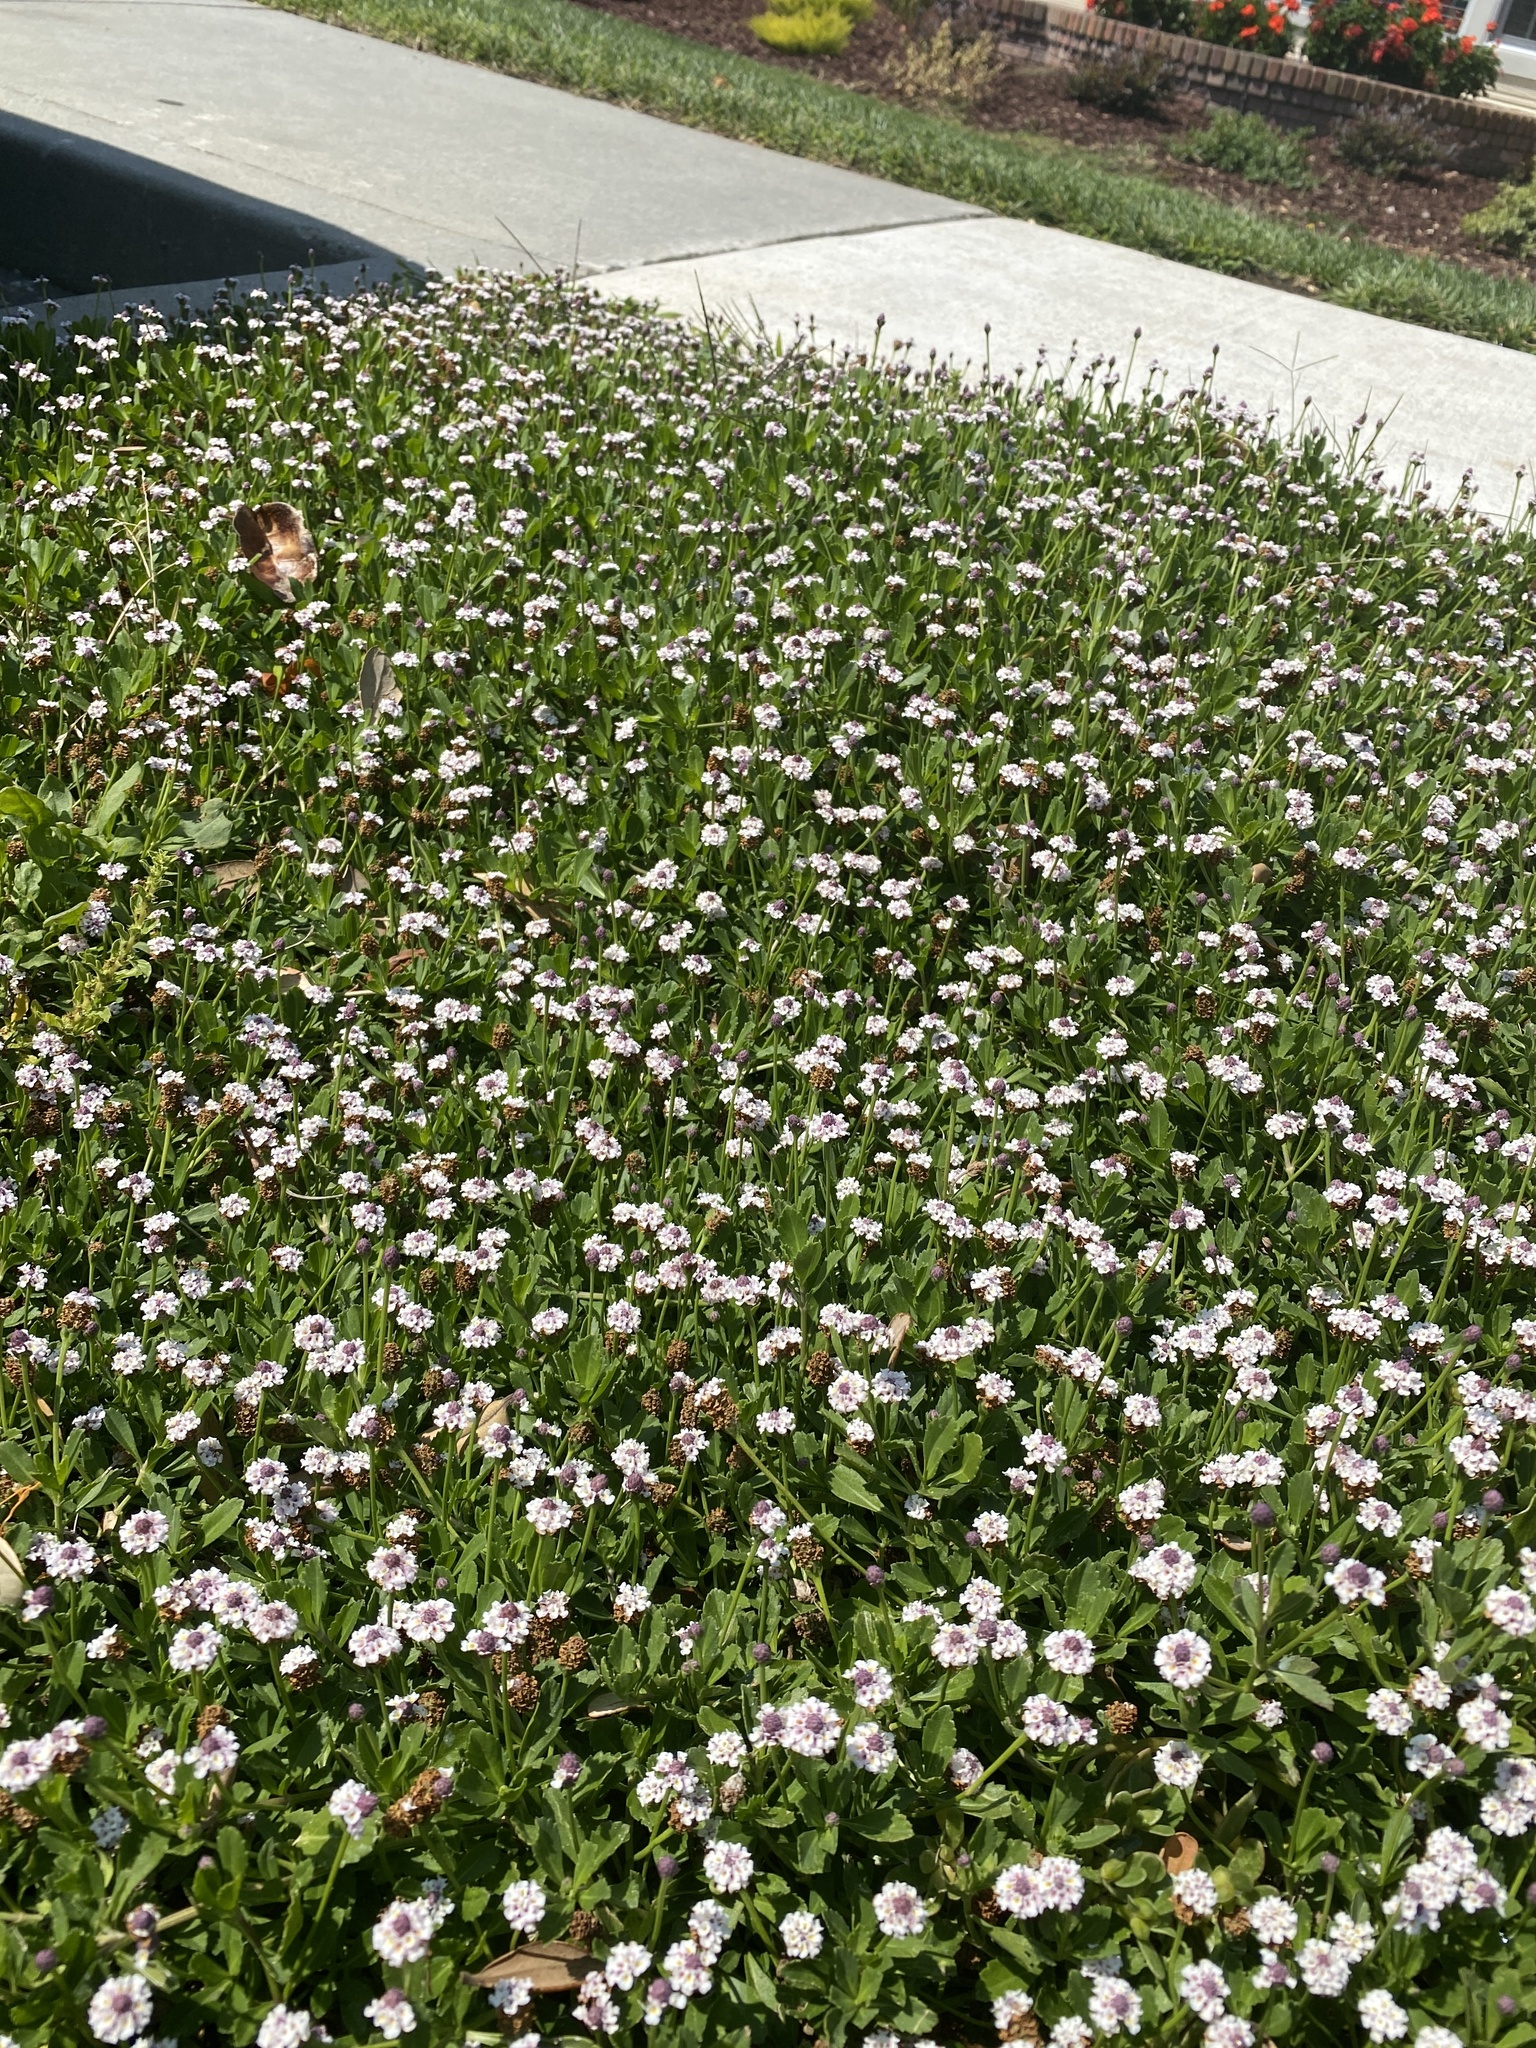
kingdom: Plantae
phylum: Tracheophyta
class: Magnoliopsida
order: Lamiales
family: Verbenaceae
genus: Phyla
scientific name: Phyla nodiflora
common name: Frogfruit
